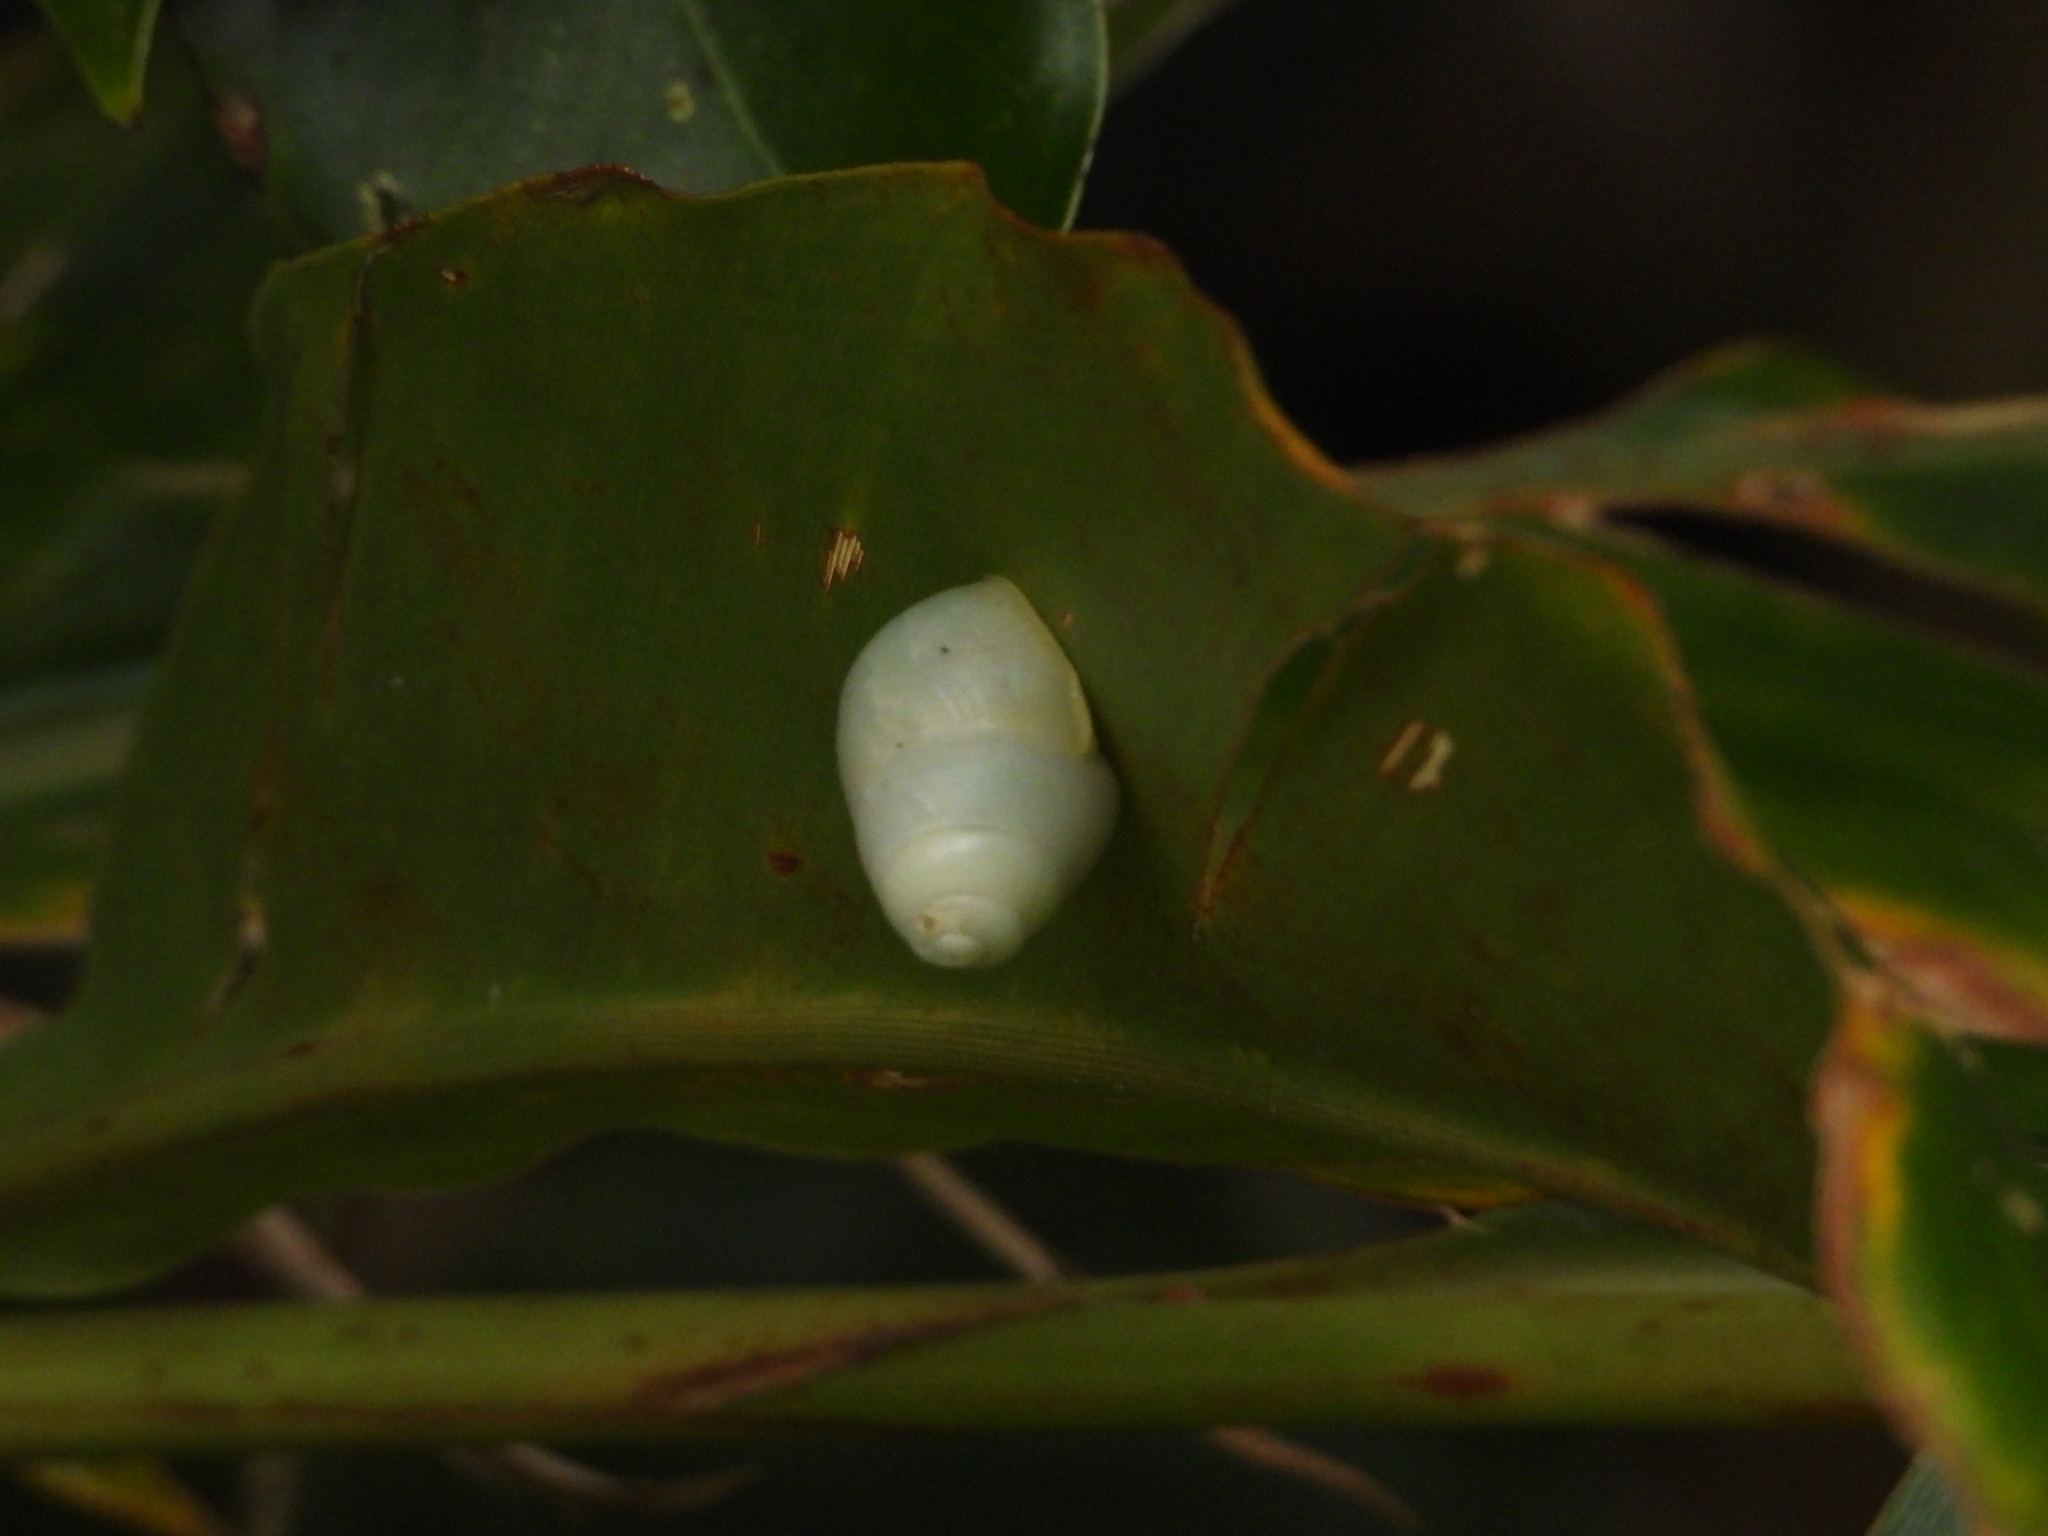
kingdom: Animalia
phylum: Mollusca
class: Gastropoda
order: Stylommatophora
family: Camaenidae
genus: Helicostyla
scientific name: Helicostyla okadai
